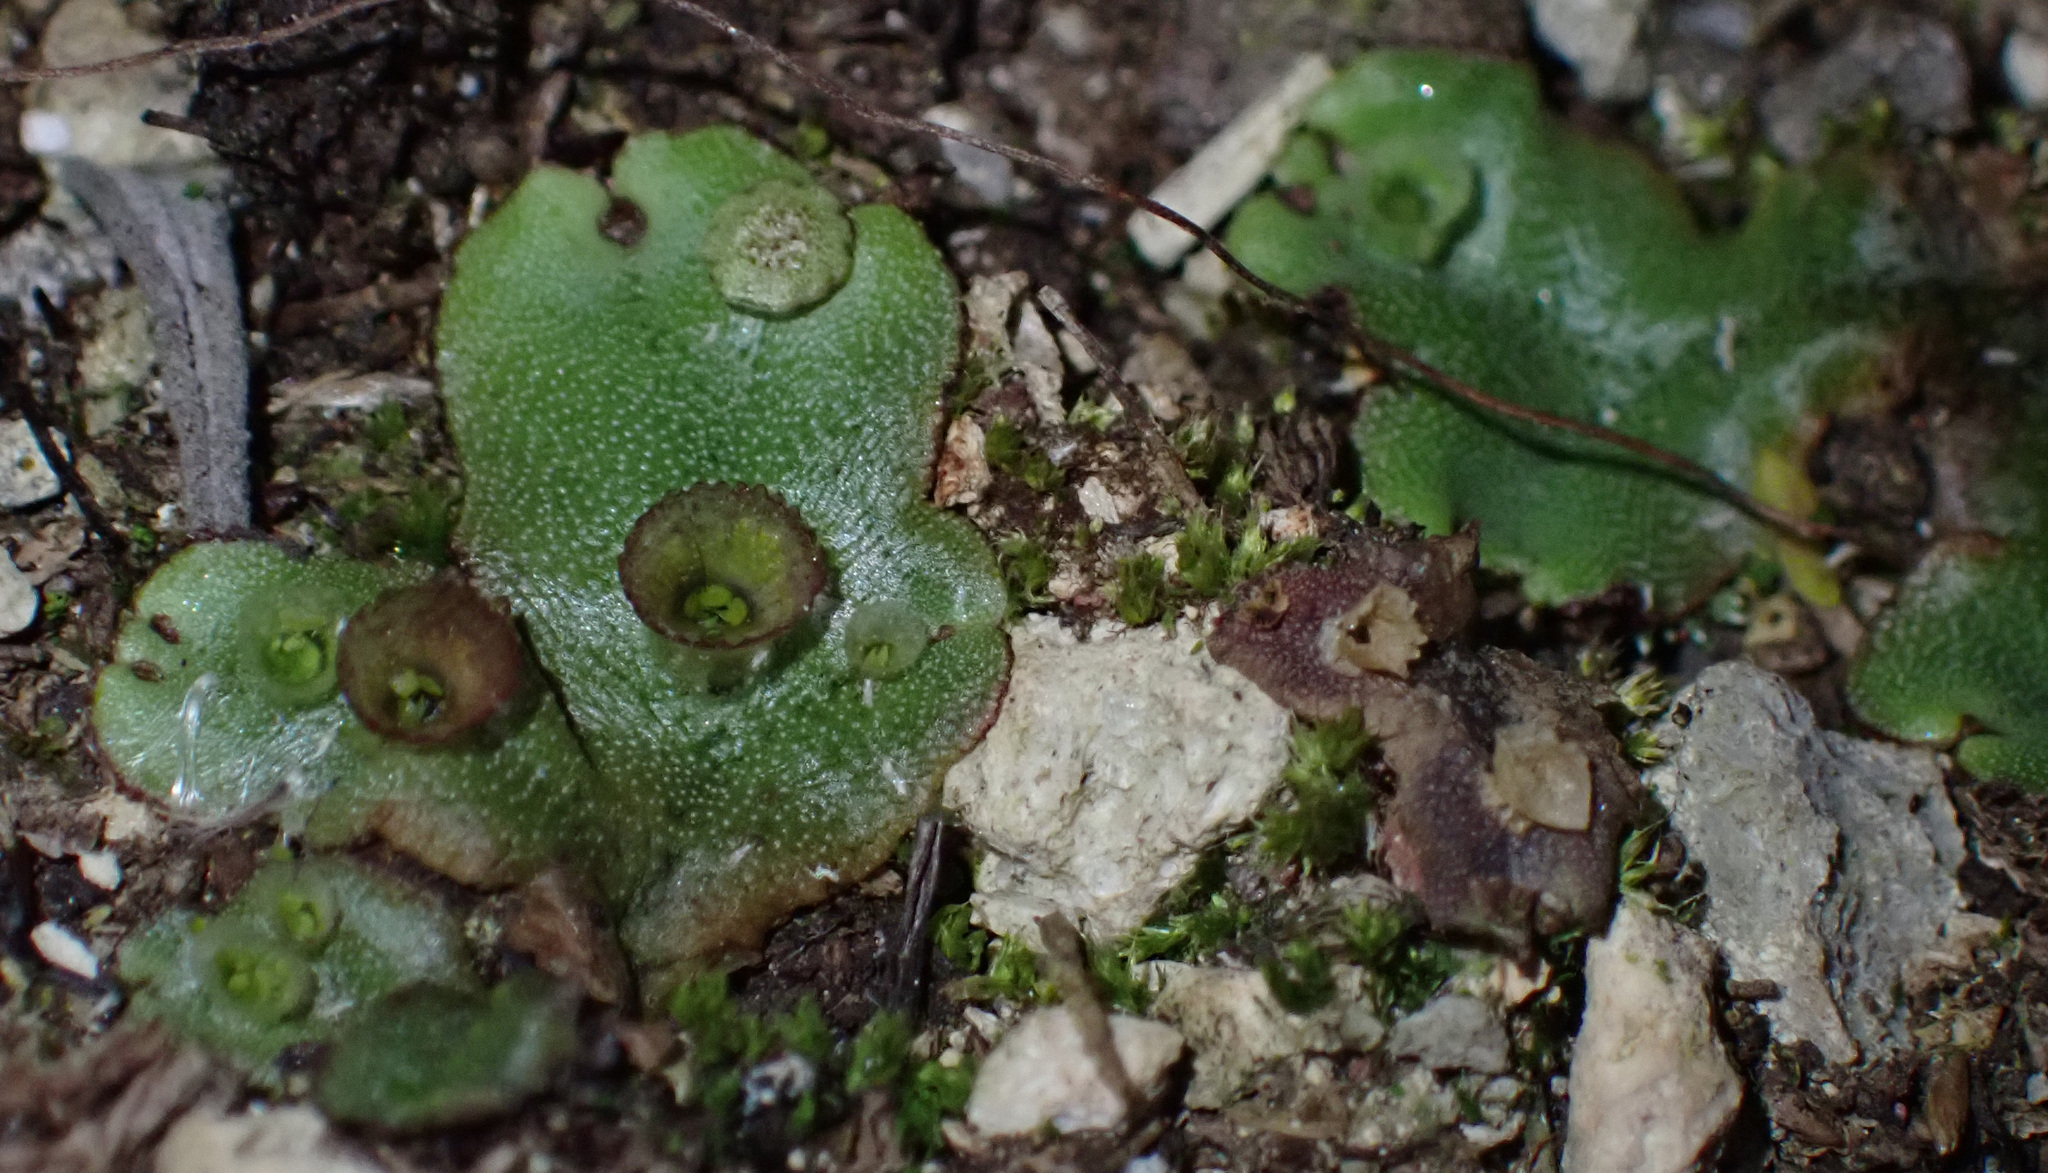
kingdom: Plantae
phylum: Marchantiophyta
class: Marchantiopsida
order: Marchantiales
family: Marchantiaceae
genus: Marchantia
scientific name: Marchantia polymorpha
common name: Common liverwort
